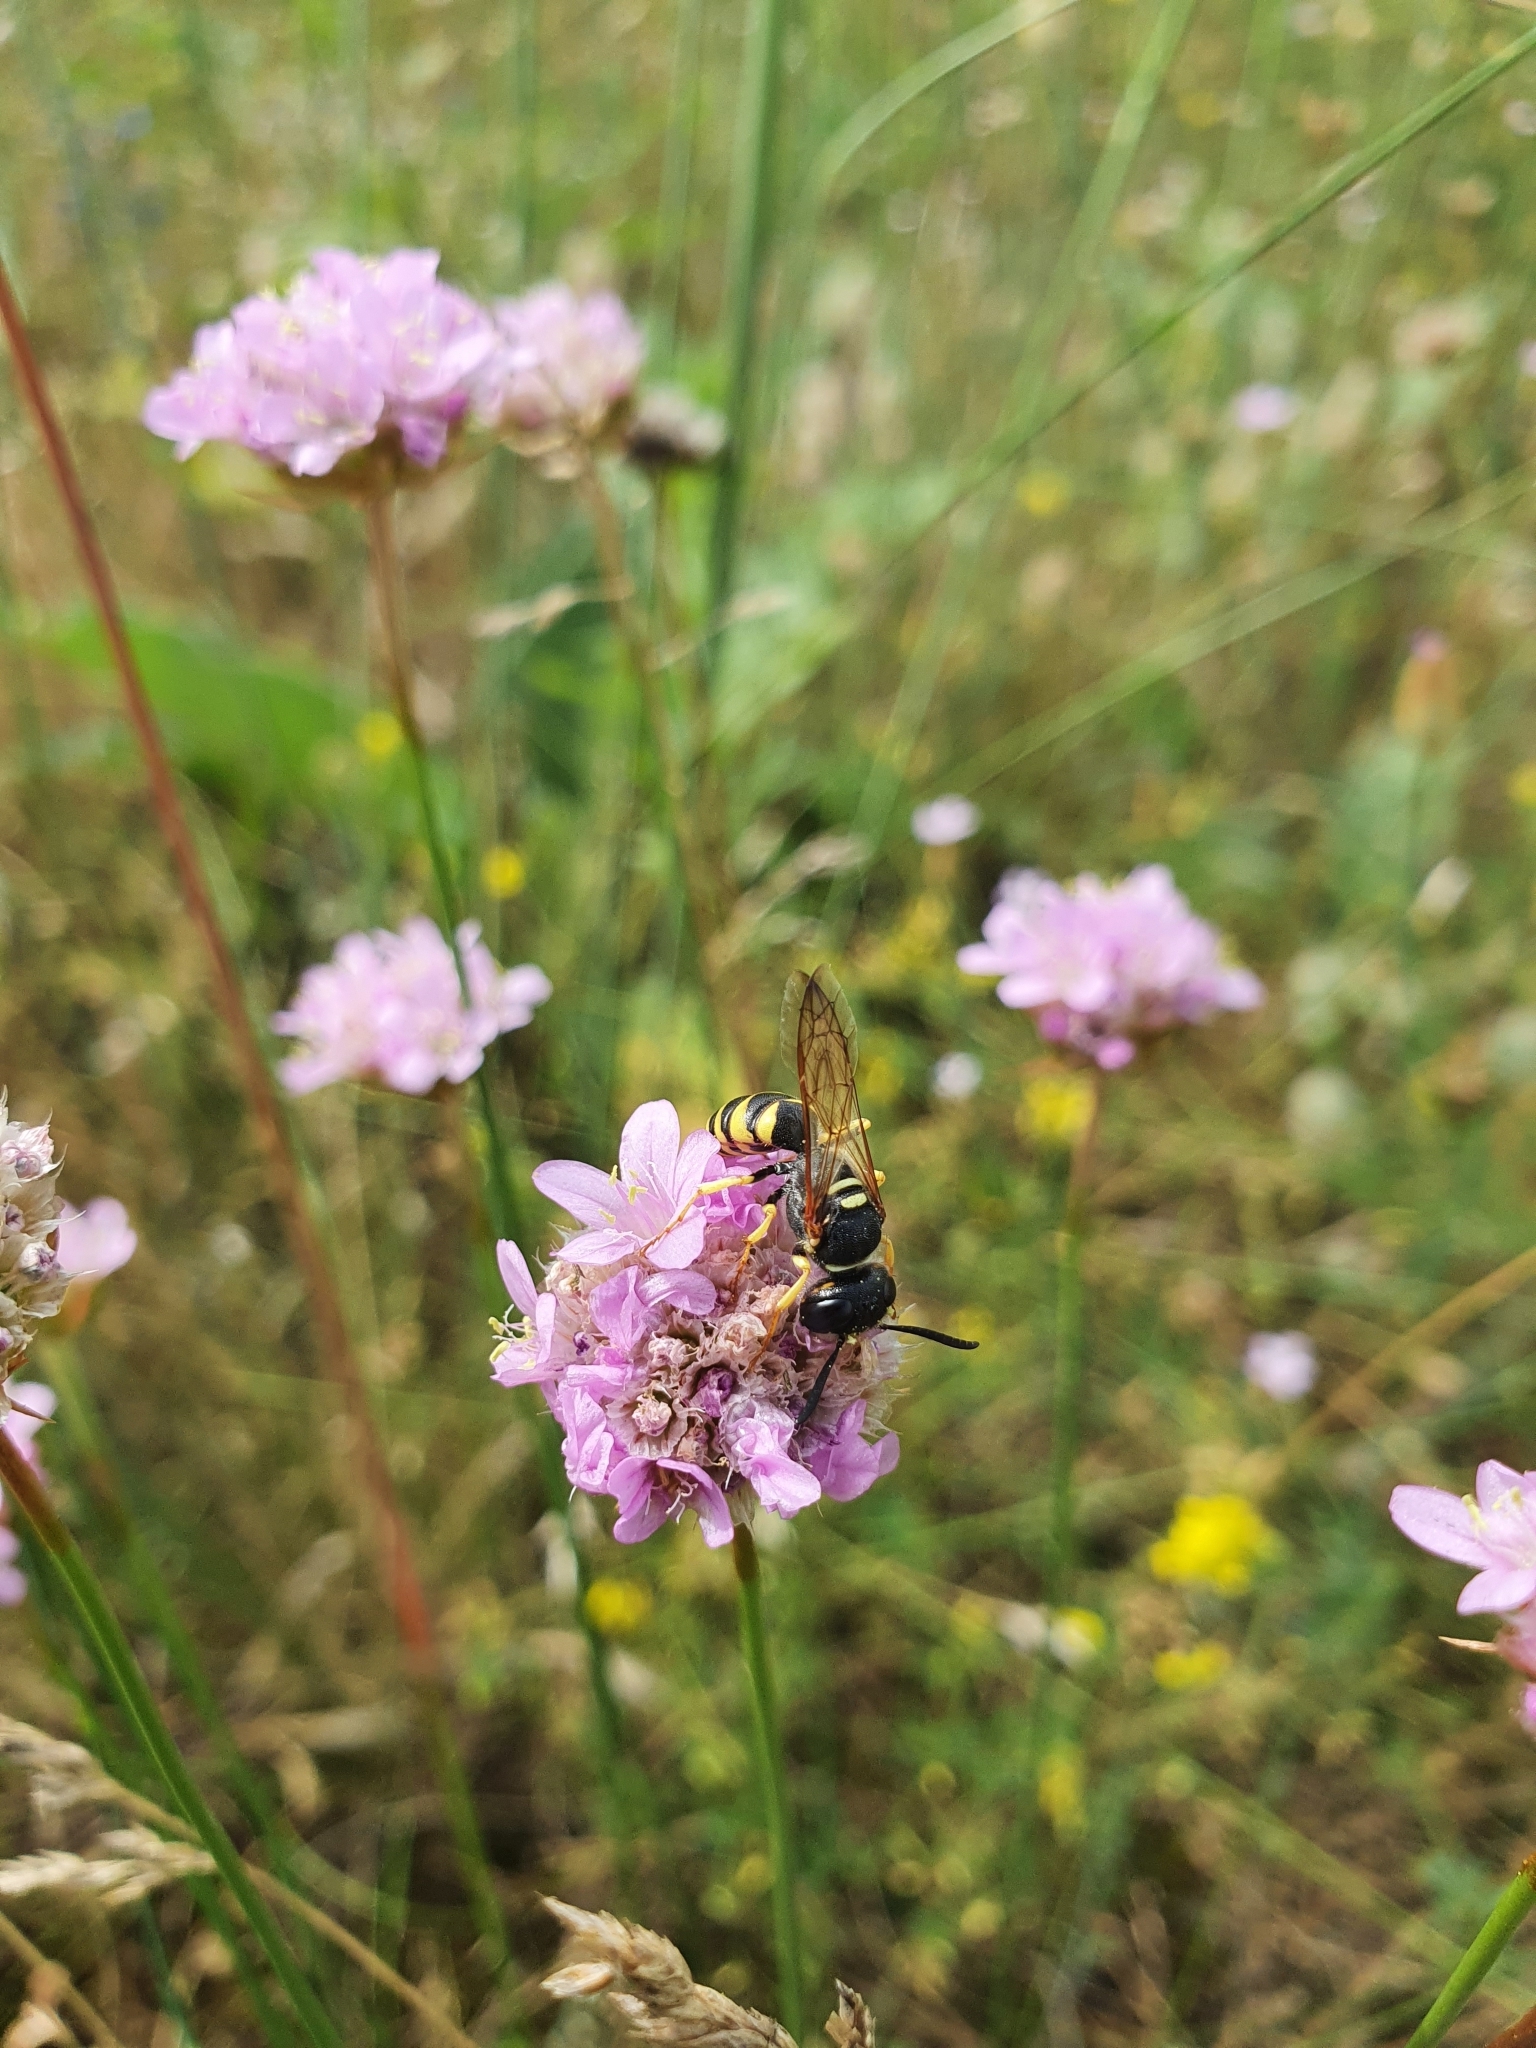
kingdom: Plantae
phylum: Tracheophyta
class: Magnoliopsida
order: Caryophyllales
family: Plumbaginaceae
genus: Armeria
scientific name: Armeria maritima
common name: Thrift
